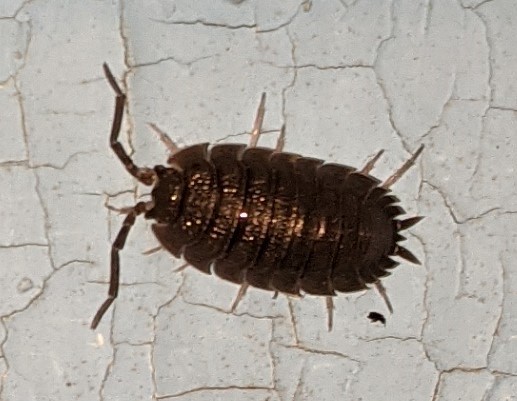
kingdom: Animalia
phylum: Arthropoda
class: Malacostraca
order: Isopoda
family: Porcellionidae
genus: Porcellio
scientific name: Porcellio scaber
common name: Common rough woodlouse
